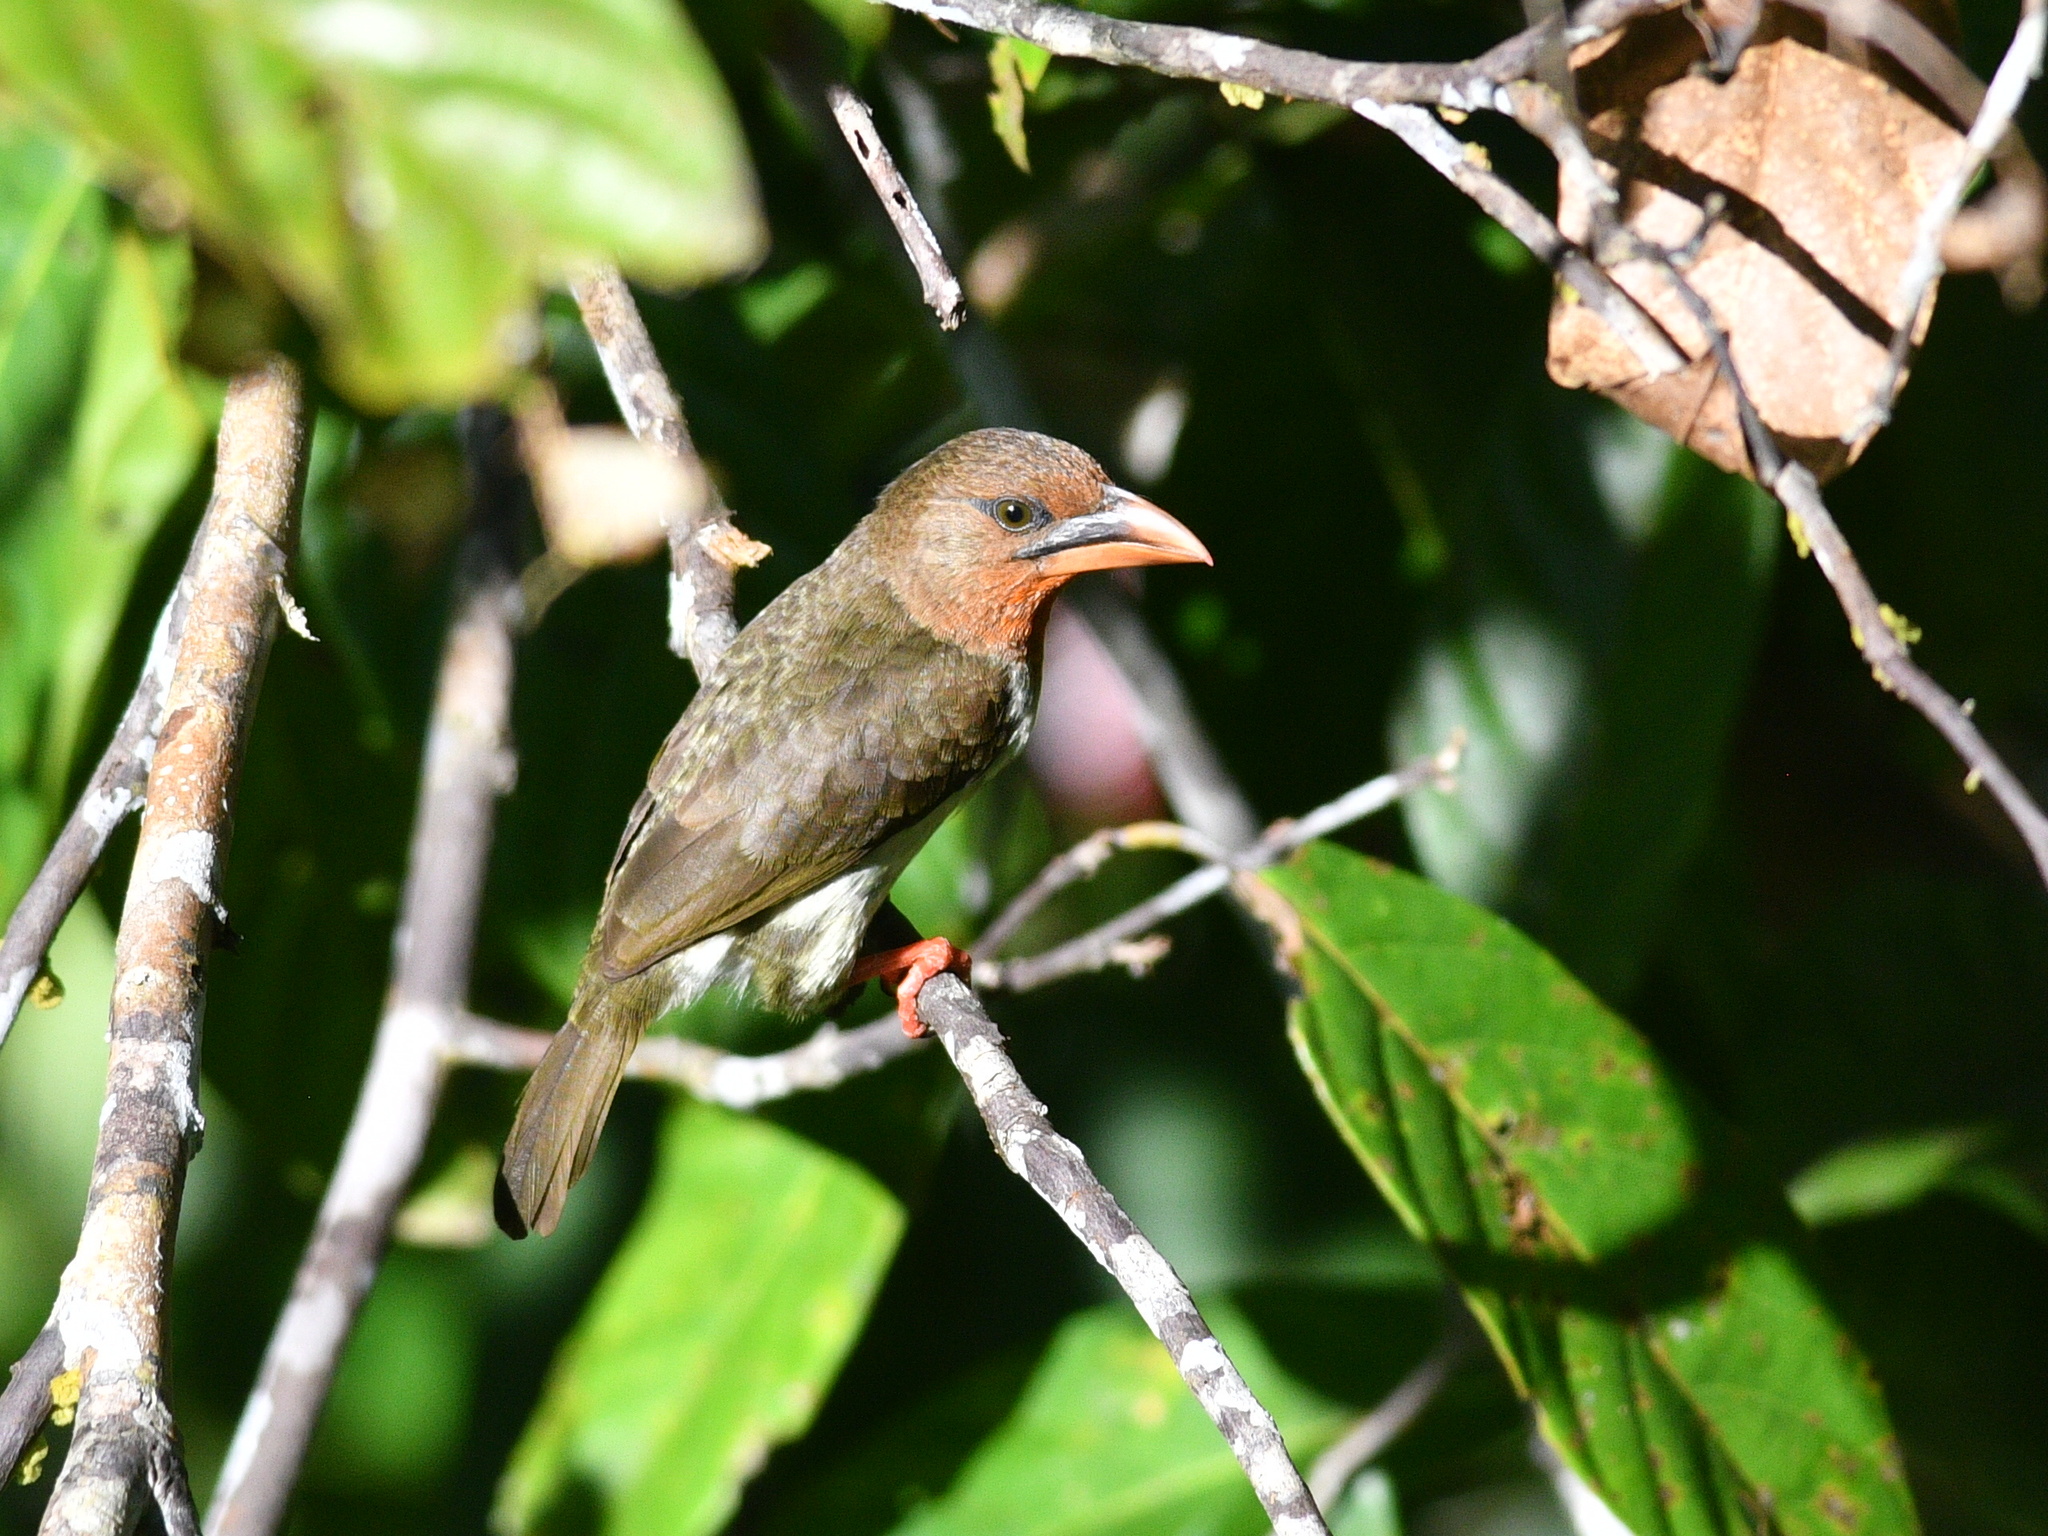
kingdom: Animalia
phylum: Chordata
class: Aves
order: Piciformes
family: Megalaimidae
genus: Caloramphus
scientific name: Caloramphus fuliginosus
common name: Brown barbet
